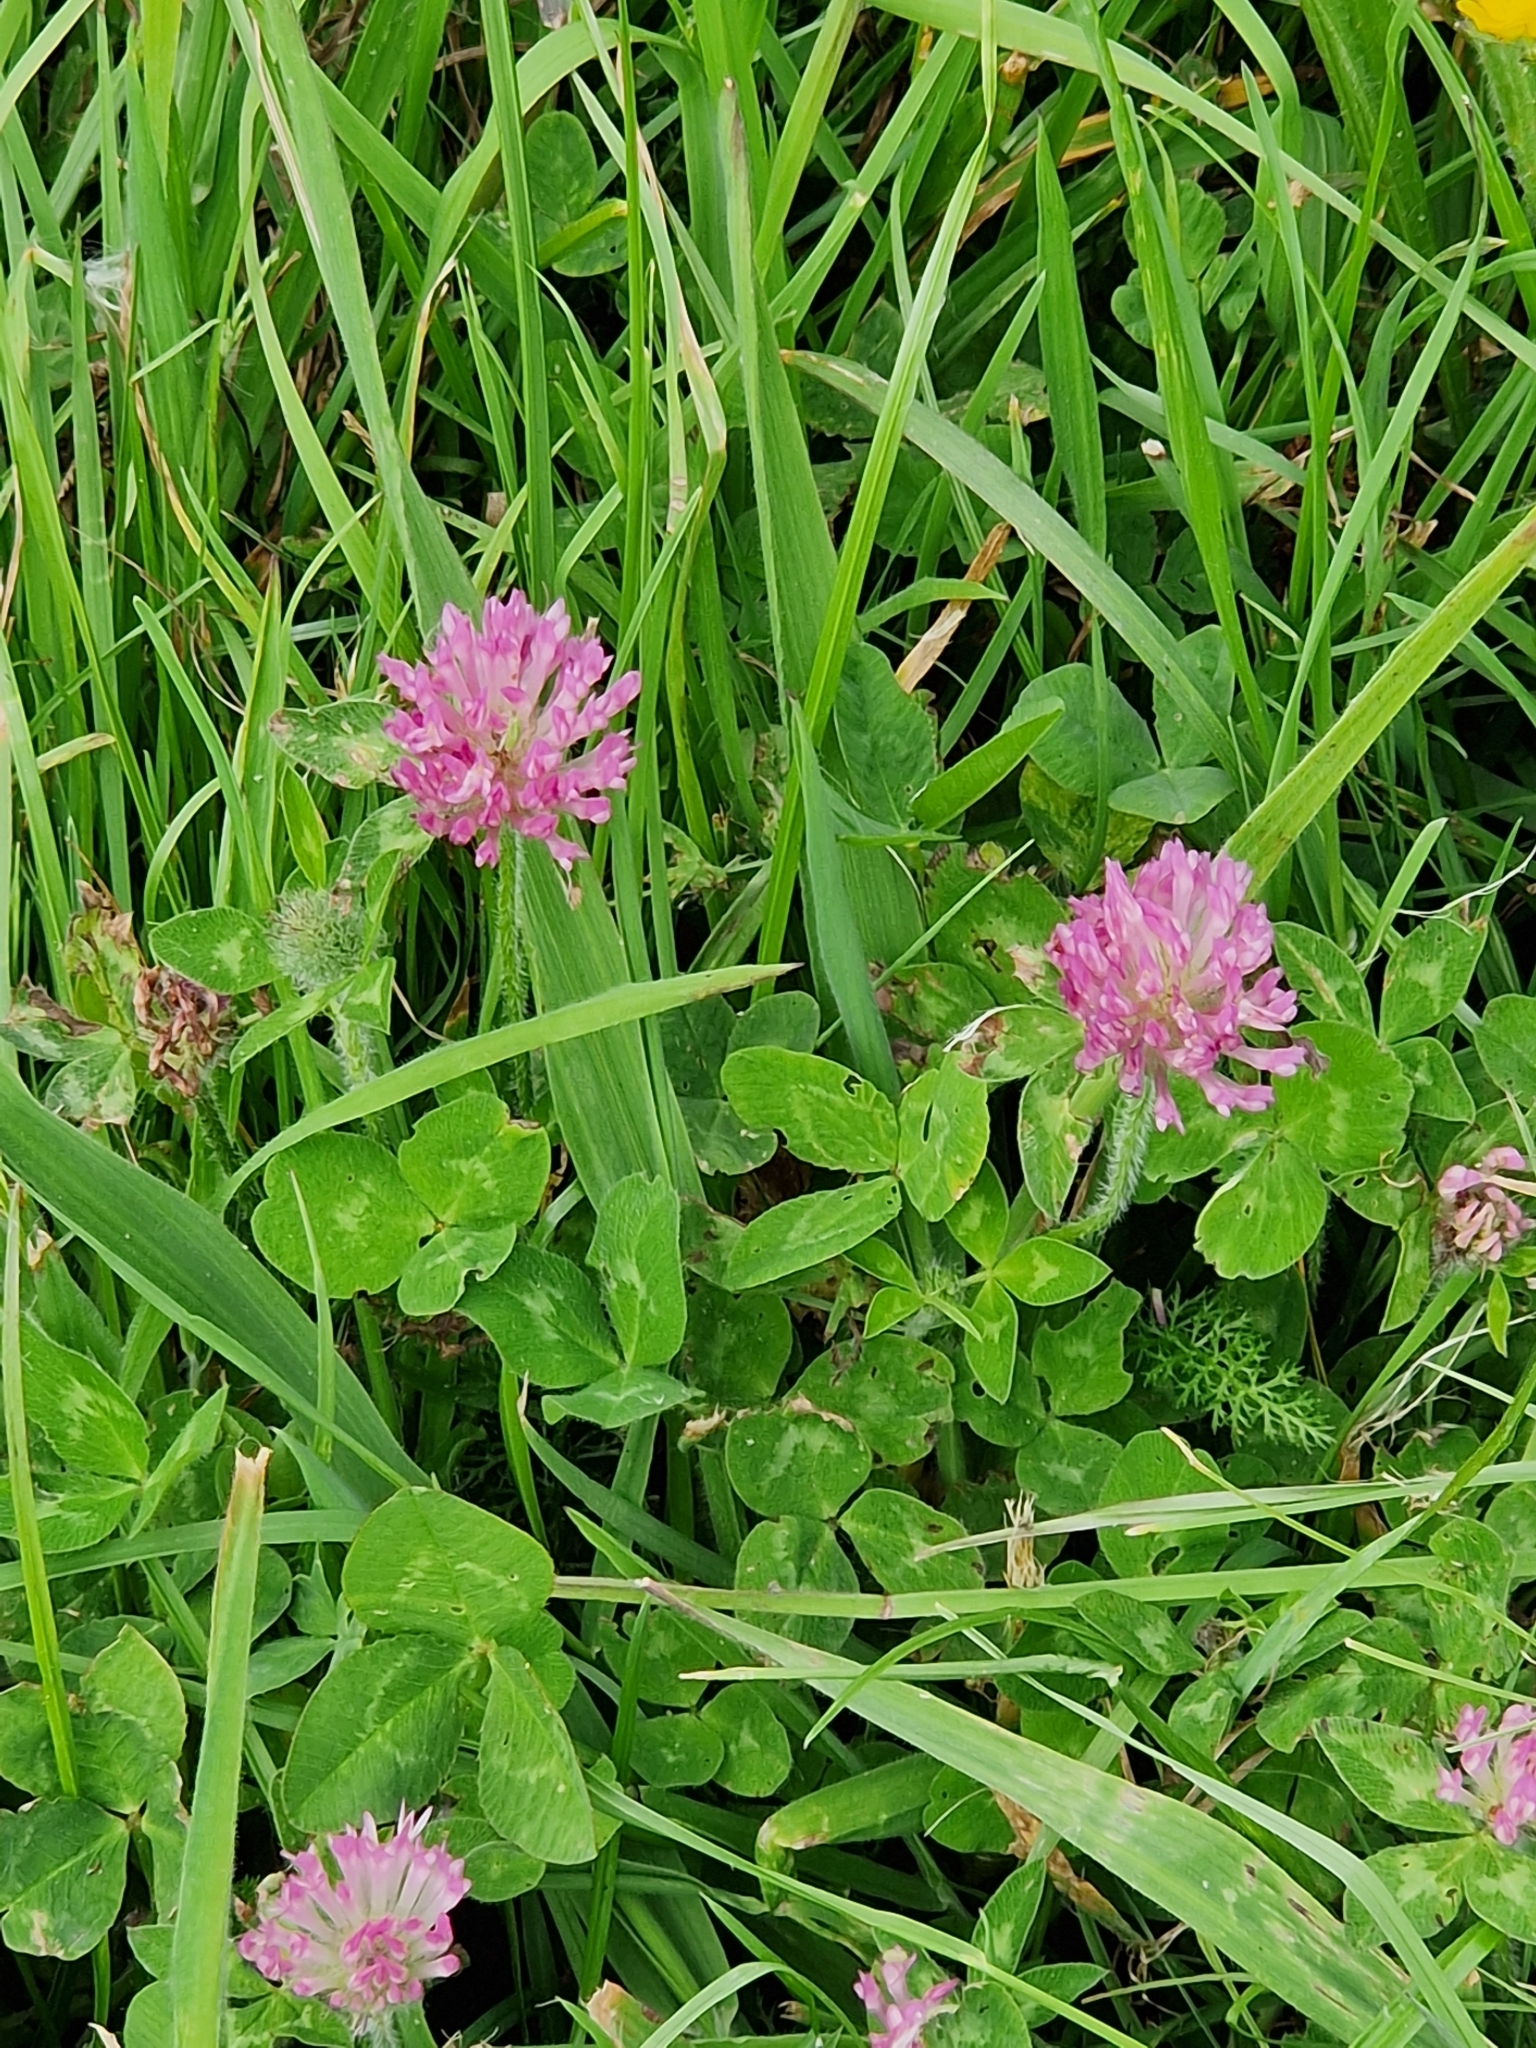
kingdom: Plantae
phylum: Tracheophyta
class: Magnoliopsida
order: Fabales
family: Fabaceae
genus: Trifolium
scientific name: Trifolium pratense
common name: Red clover
